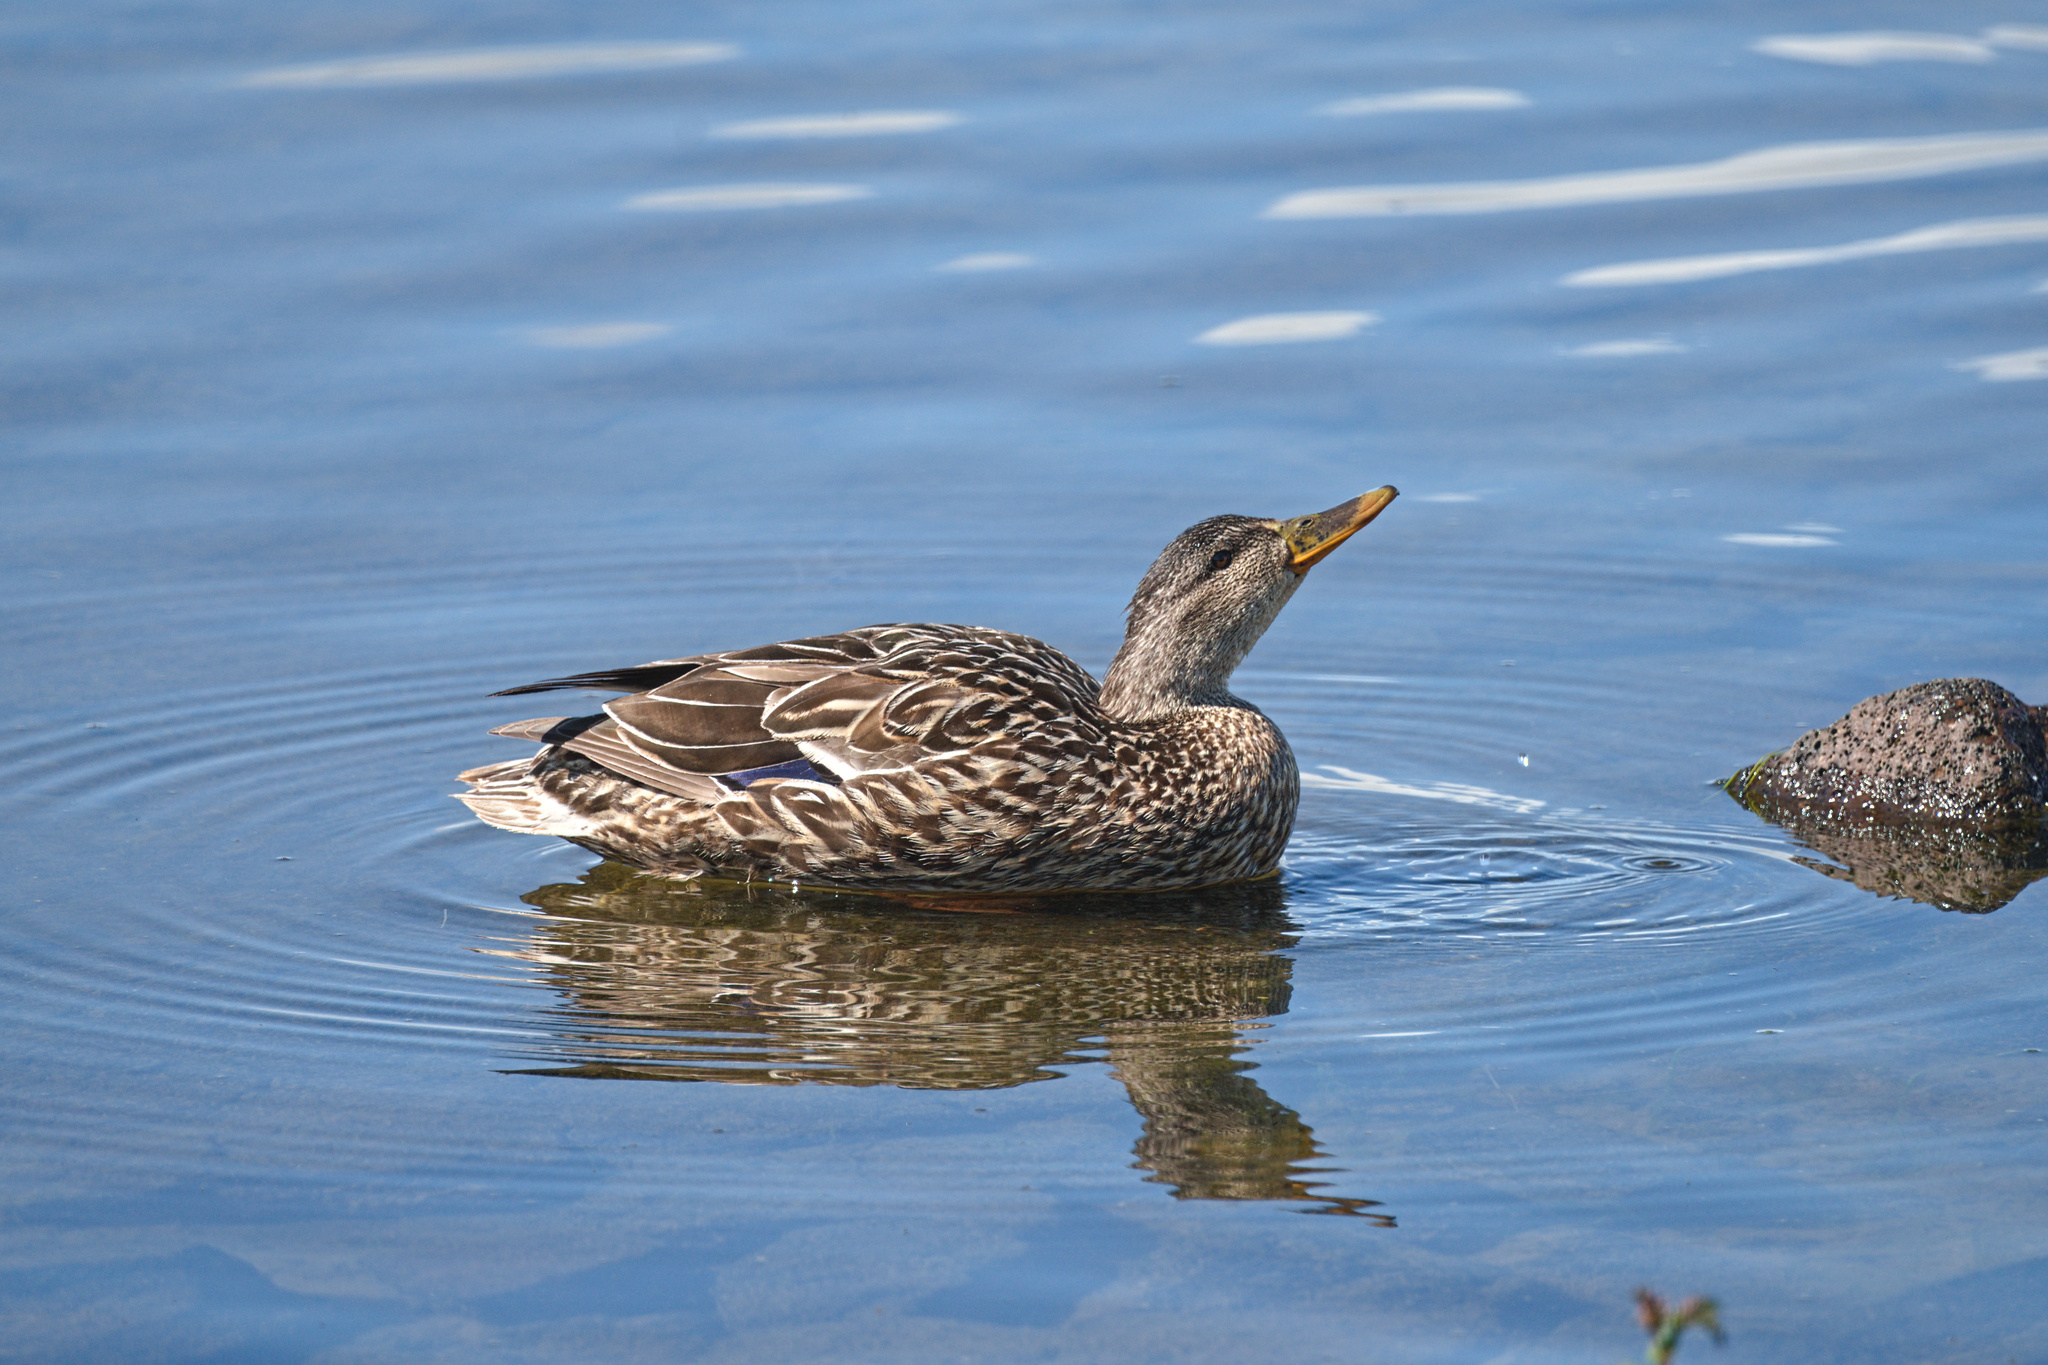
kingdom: Animalia
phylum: Chordata
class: Aves
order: Anseriformes
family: Anatidae
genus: Anas
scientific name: Anas platyrhynchos
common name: Mallard
